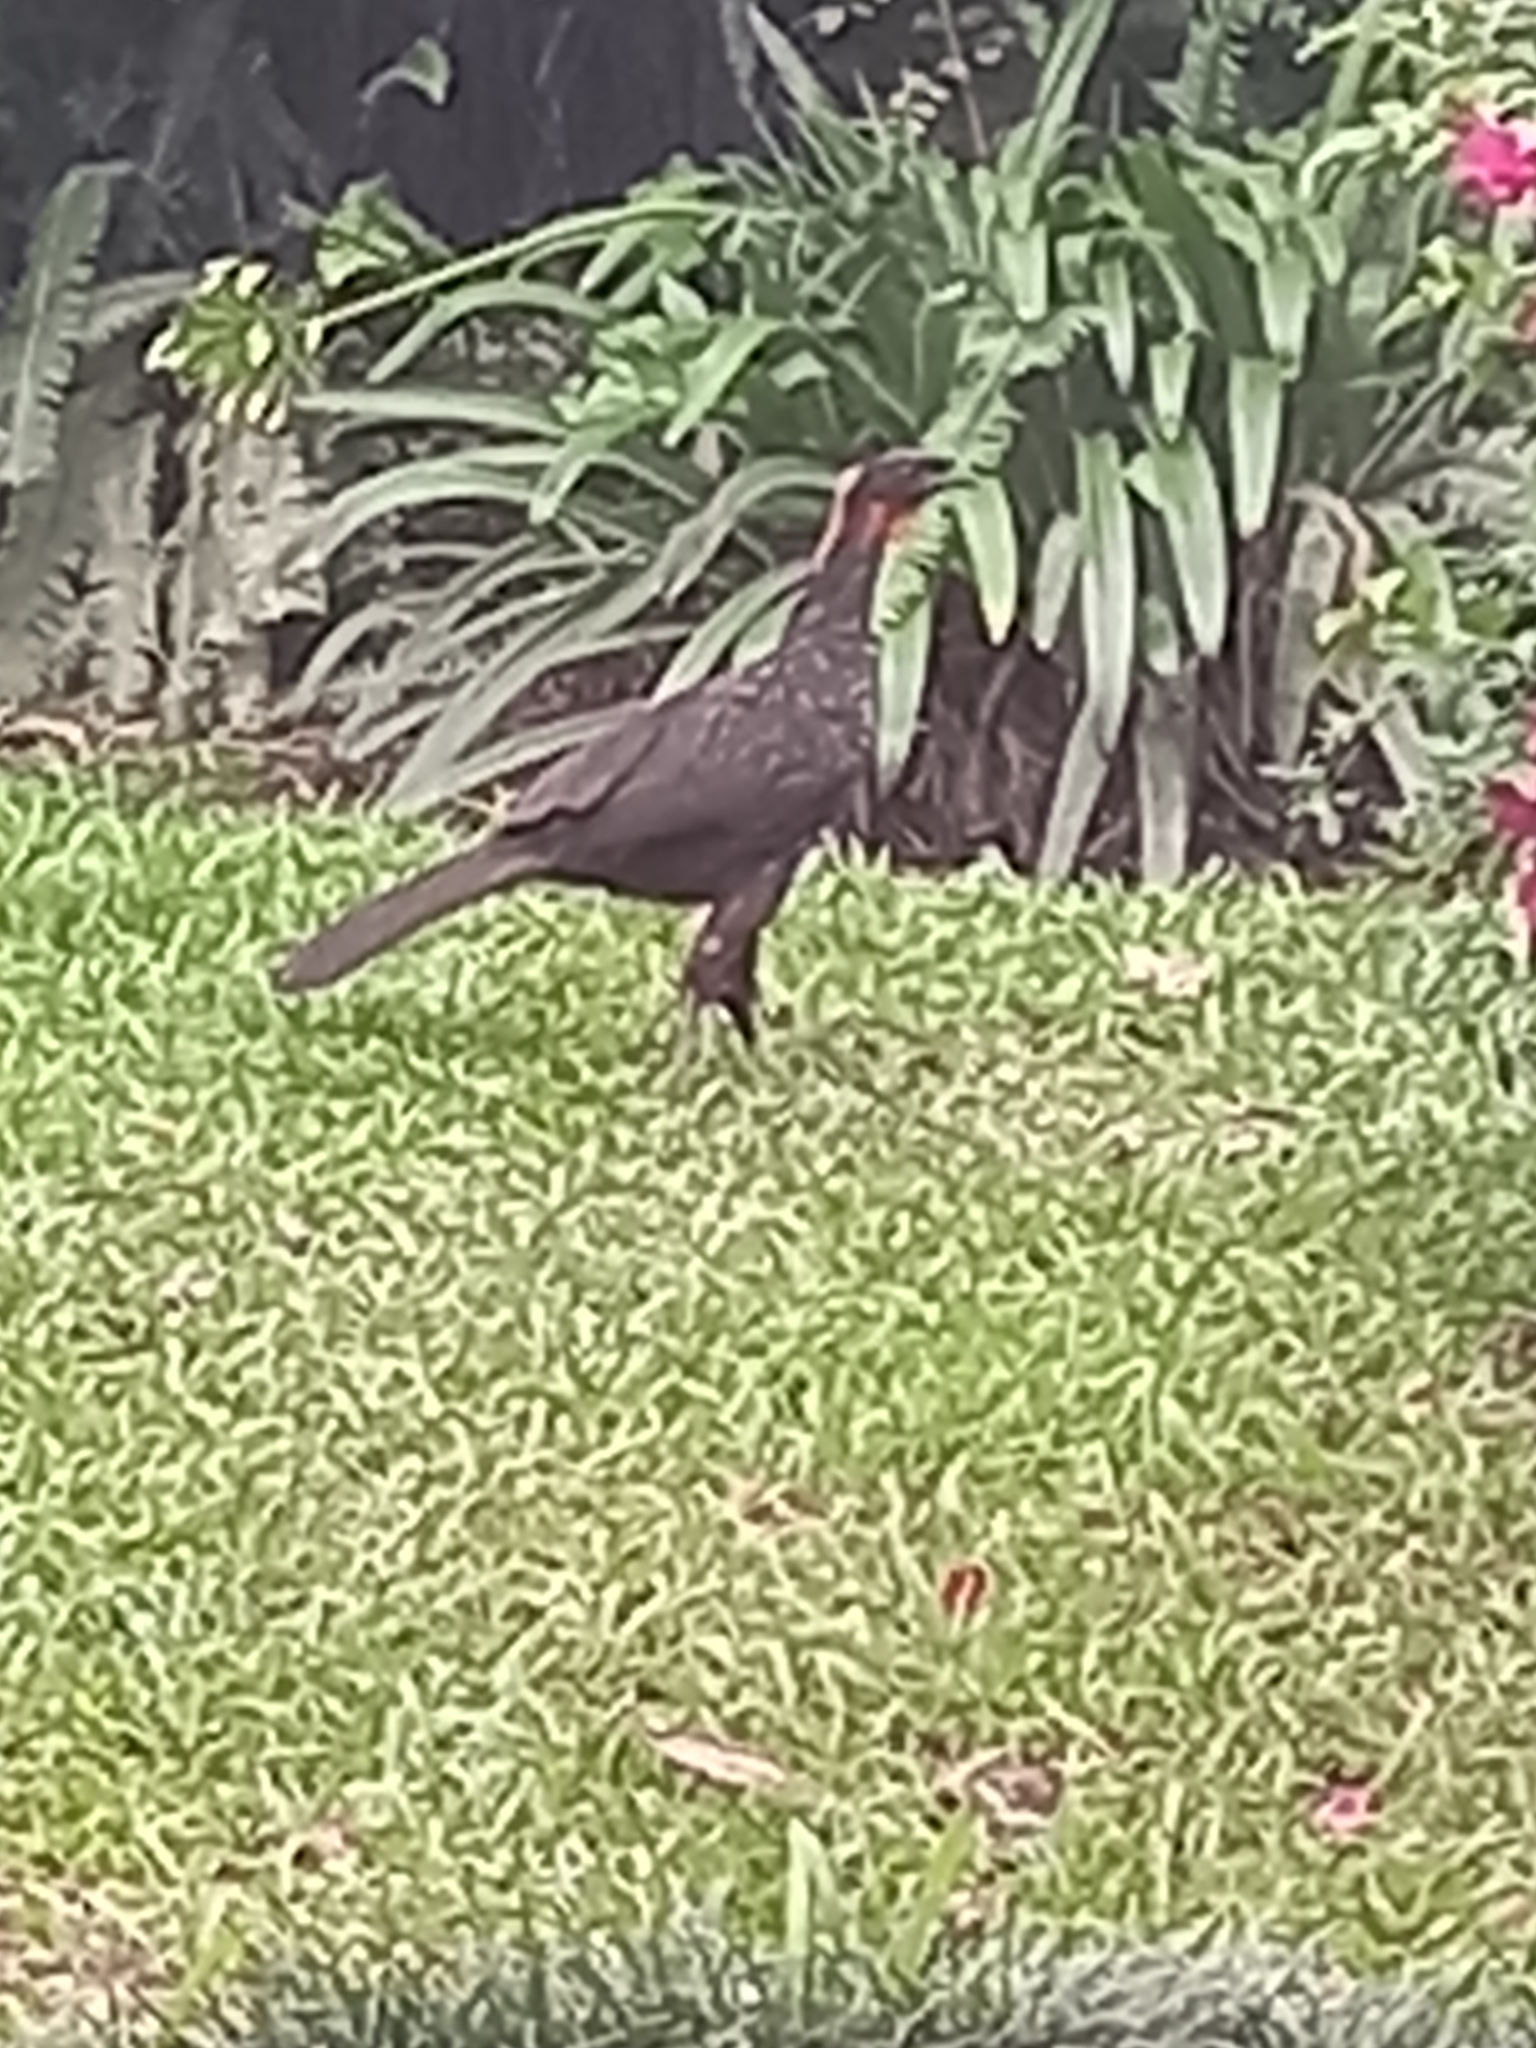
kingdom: Animalia
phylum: Chordata
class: Aves
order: Galliformes
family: Cracidae
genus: Penelope
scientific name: Penelope obscura
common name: Dusky-legged guan
